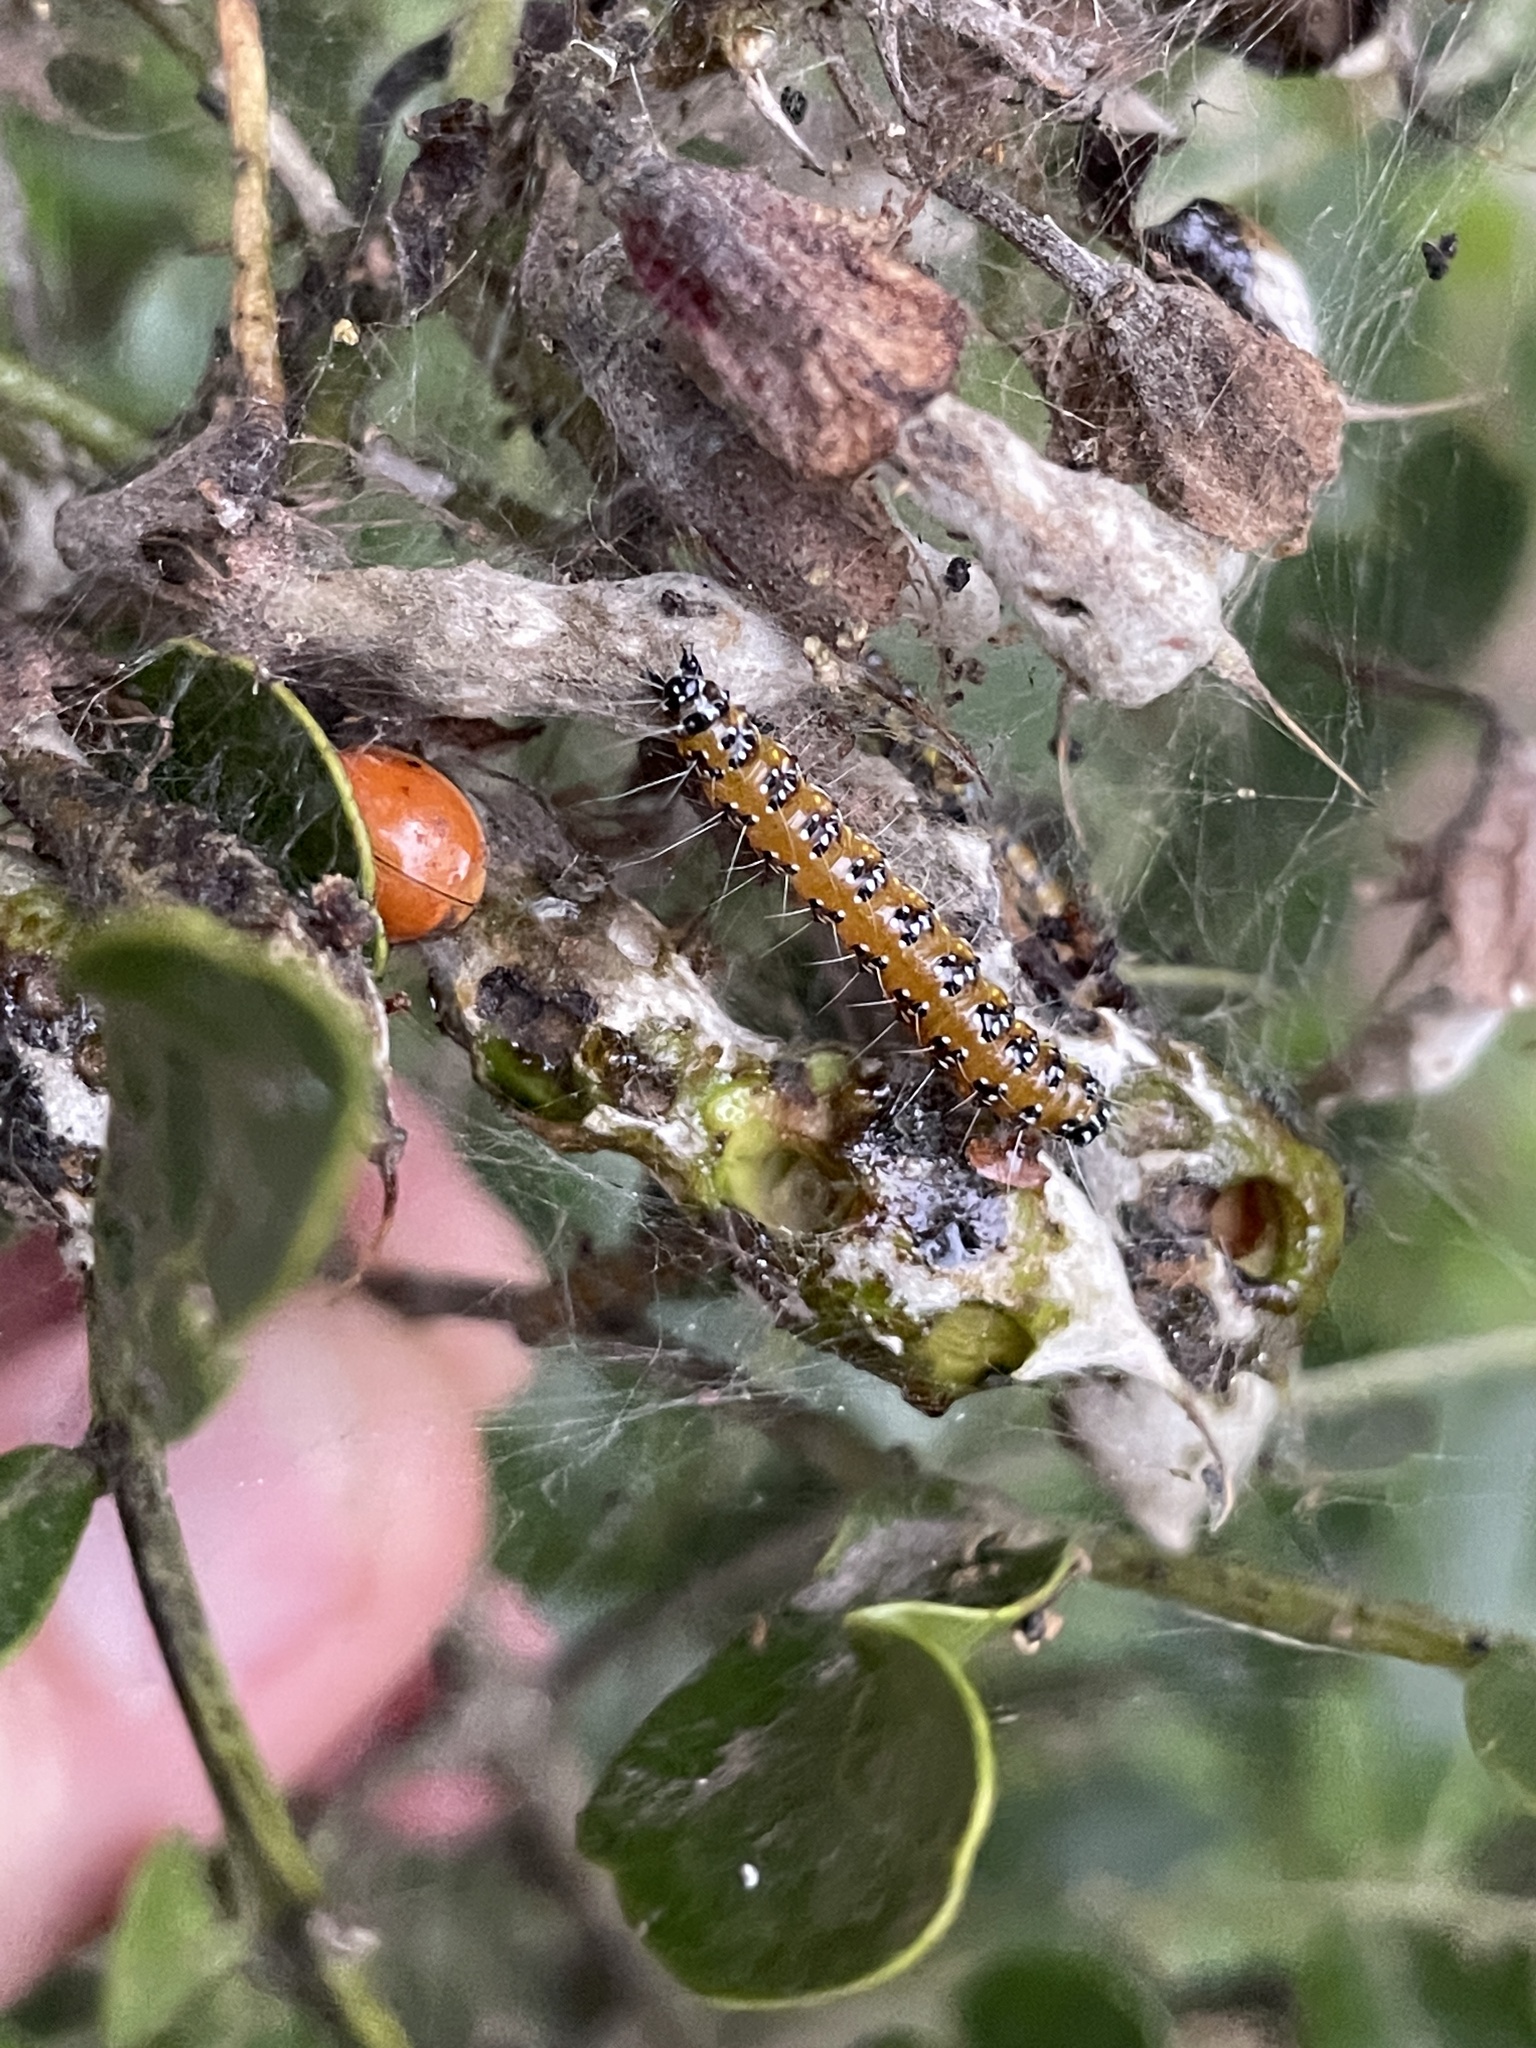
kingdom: Animalia
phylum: Arthropoda
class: Insecta
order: Lepidoptera
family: Crambidae
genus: Uresiphita
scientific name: Uresiphita reversalis
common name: Genista broom moth
